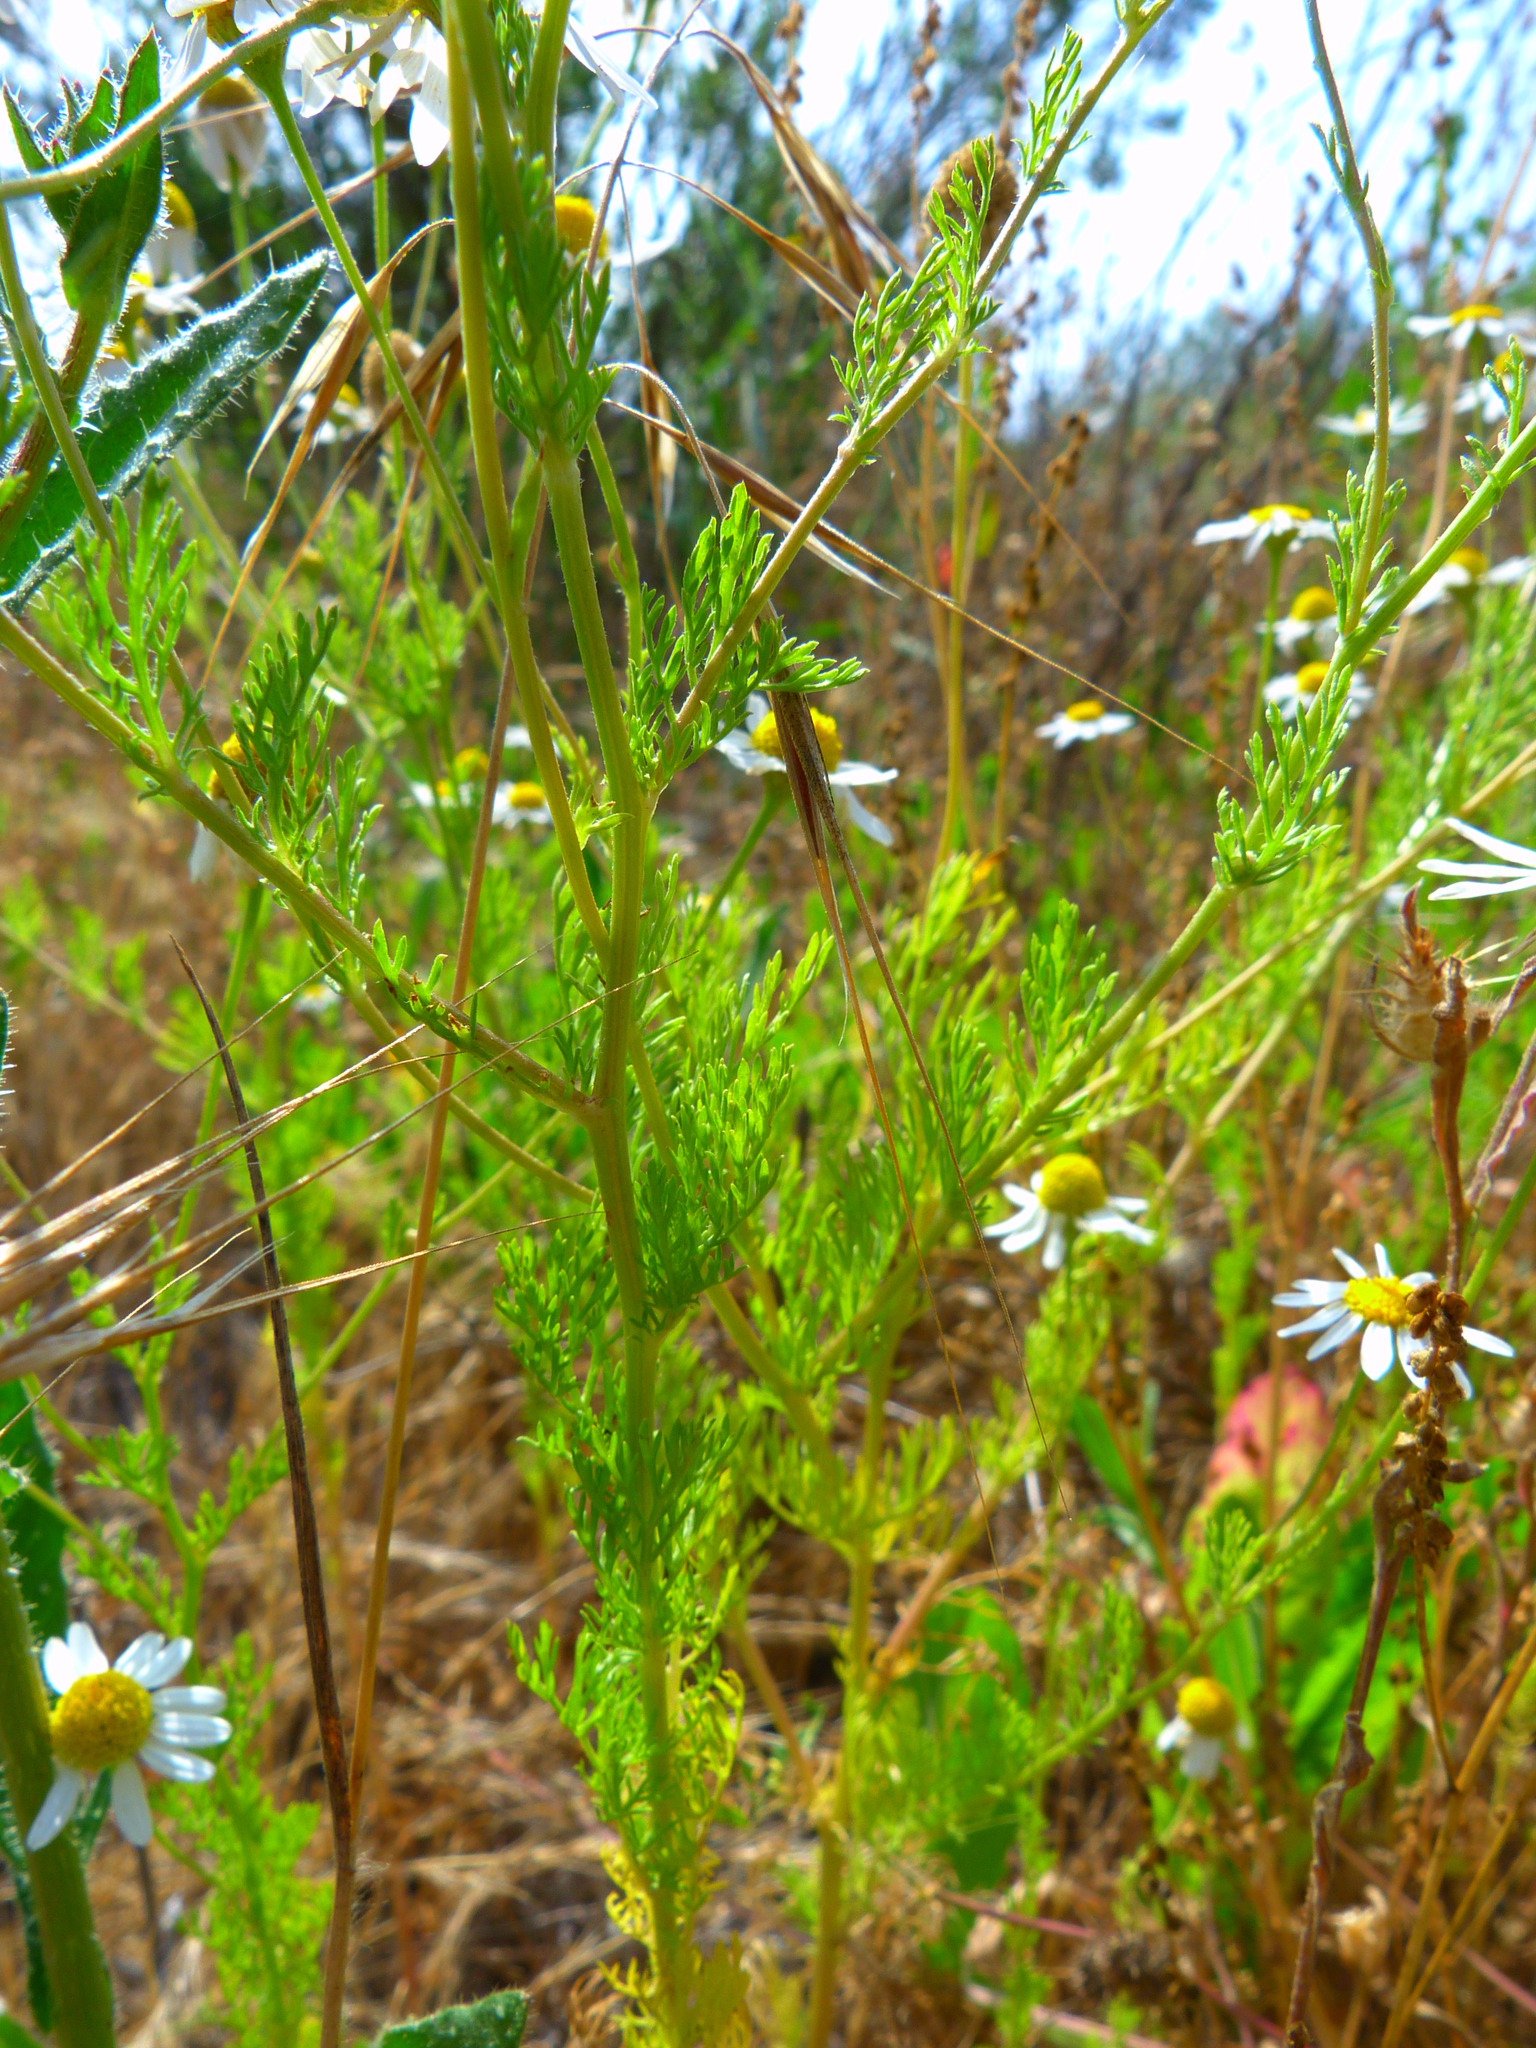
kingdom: Plantae
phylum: Tracheophyta
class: Magnoliopsida
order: Asterales
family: Asteraceae
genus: Anthemis
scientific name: Anthemis cotula
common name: Stinking chamomile
